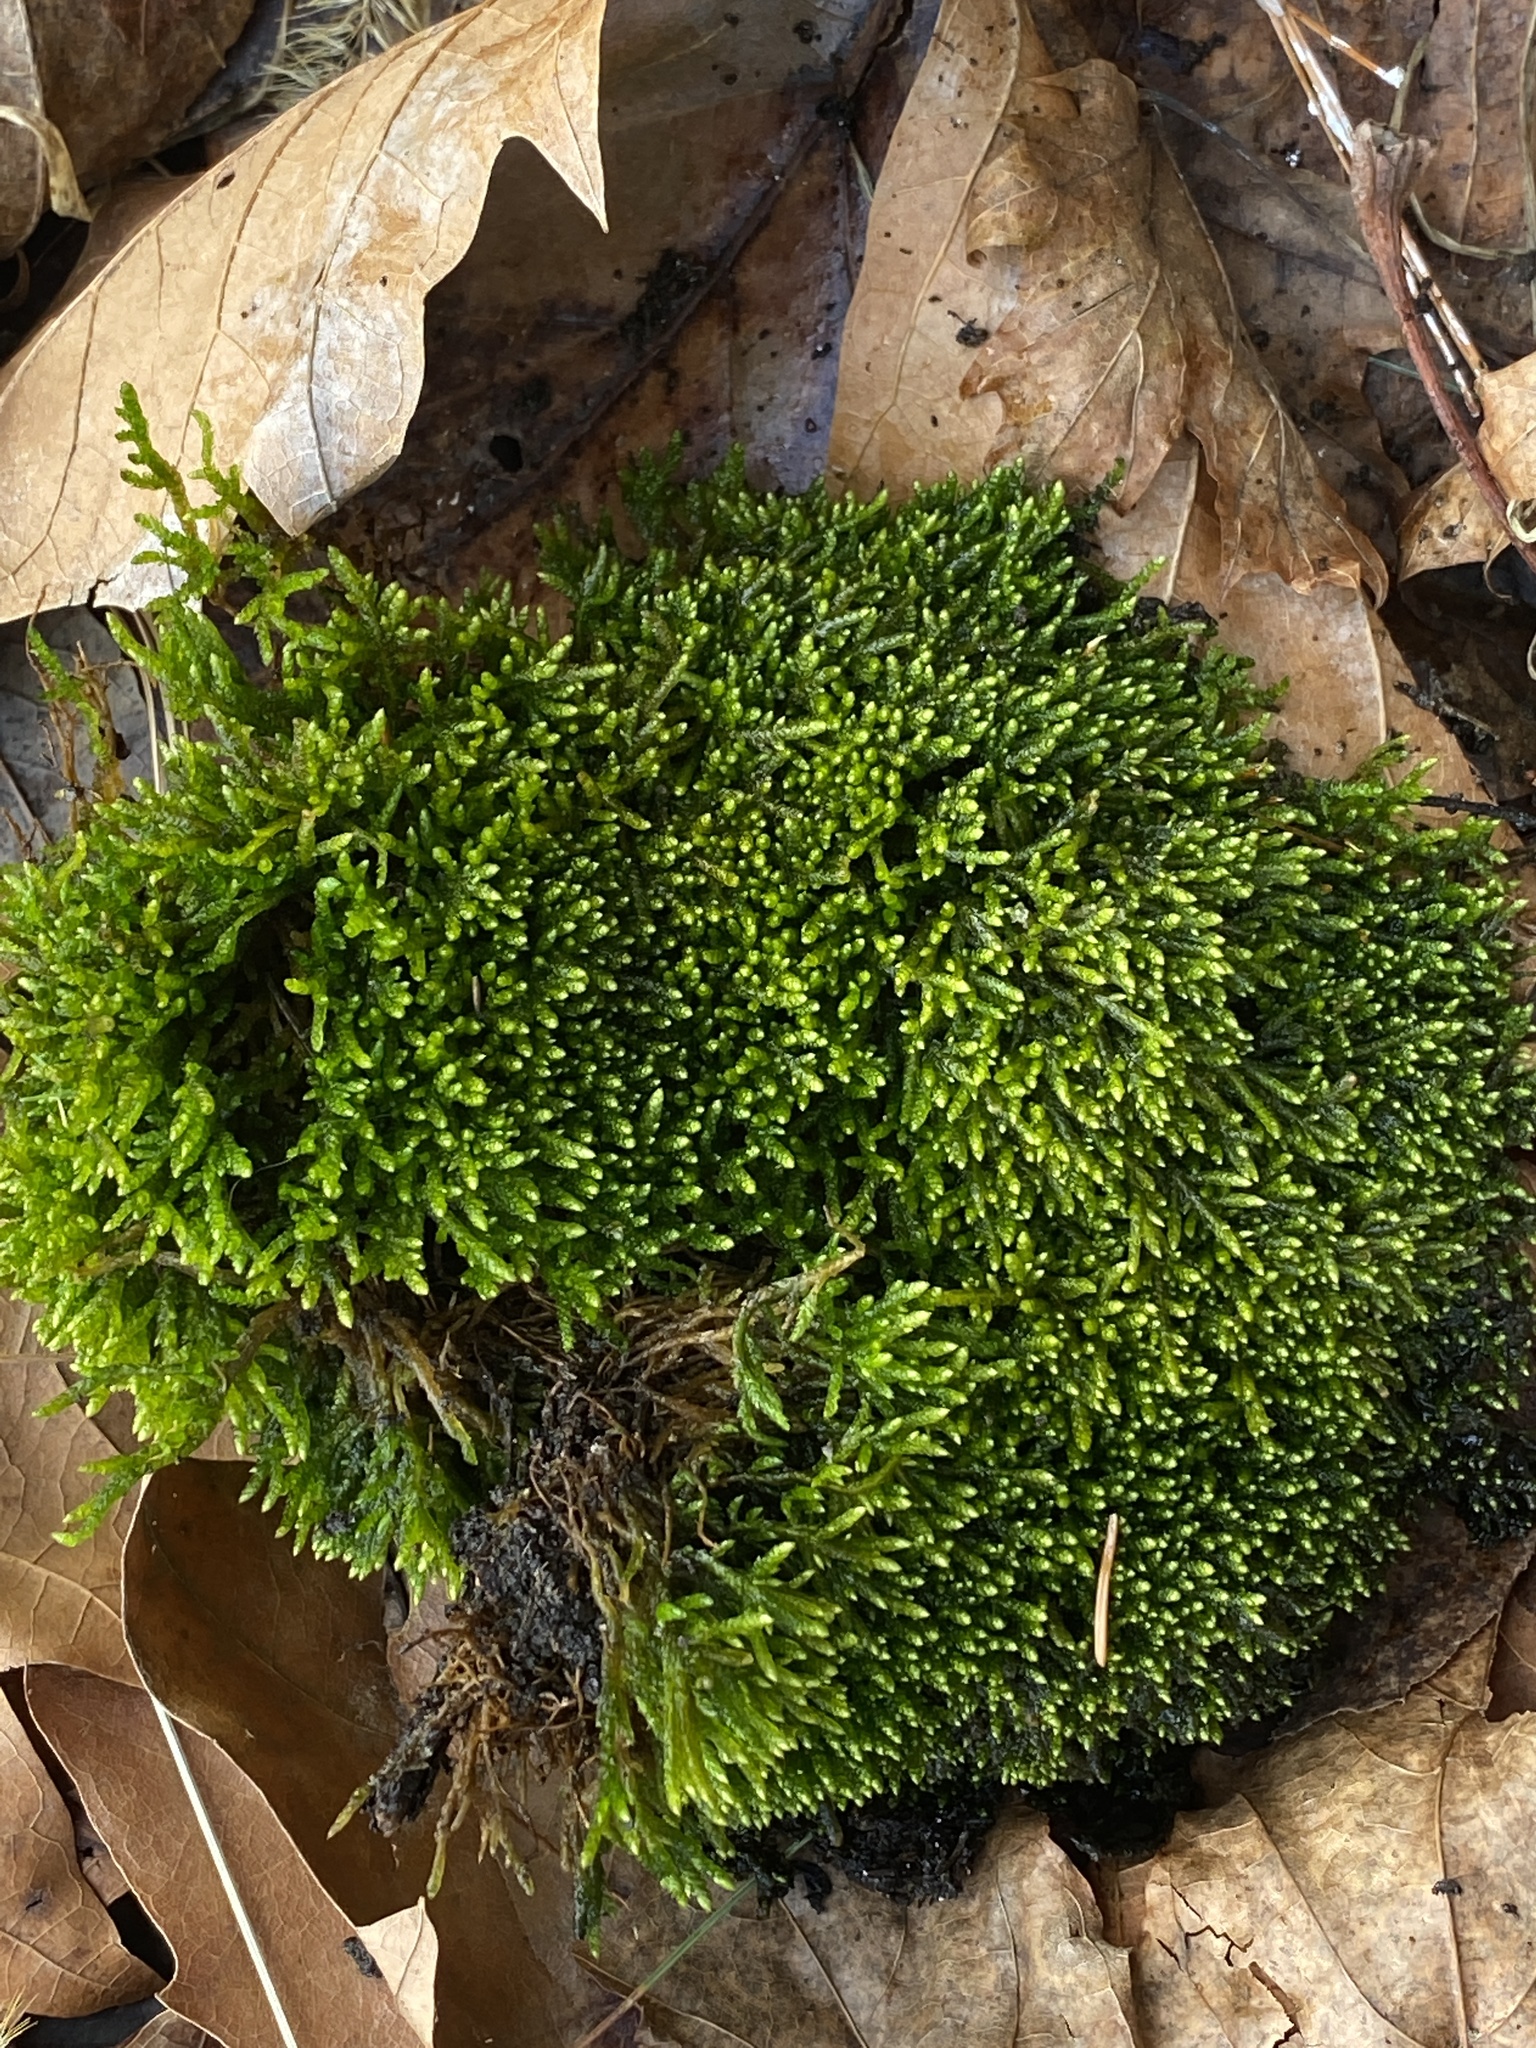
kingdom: Plantae
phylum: Bryophyta
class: Bryopsida
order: Hypnales
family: Entodontaceae
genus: Entodon
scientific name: Entodon seductrix
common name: Round-stemmed entodon moss
